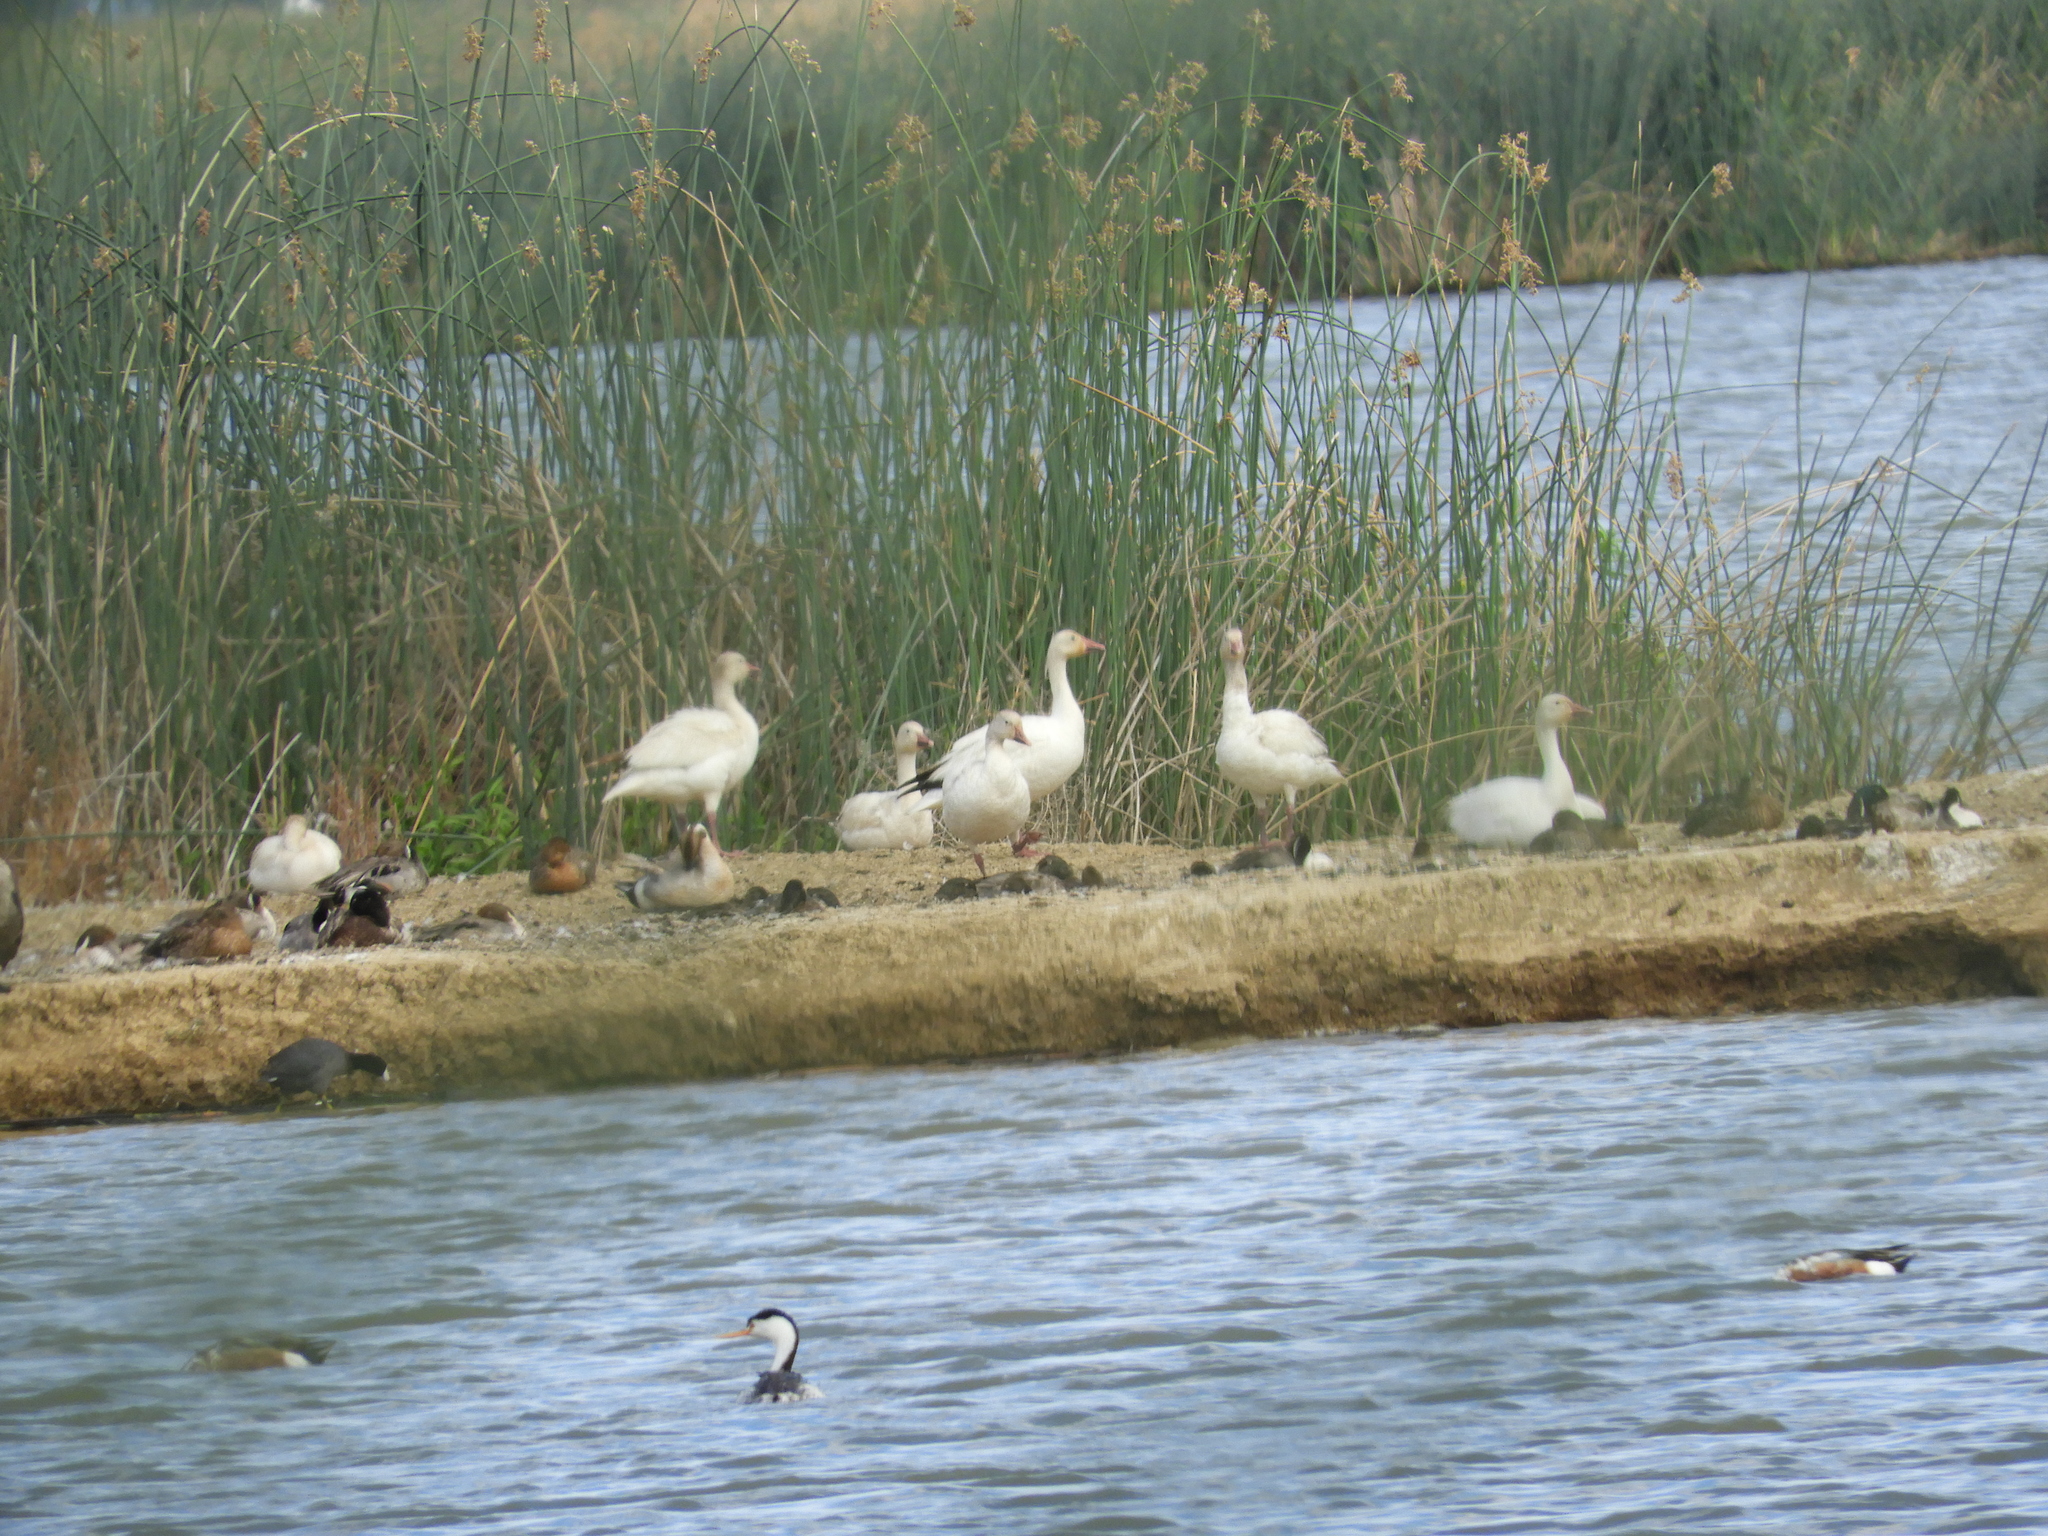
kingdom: Animalia
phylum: Chordata
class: Aves
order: Anseriformes
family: Anatidae
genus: Anser
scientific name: Anser caerulescens
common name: Snow goose
